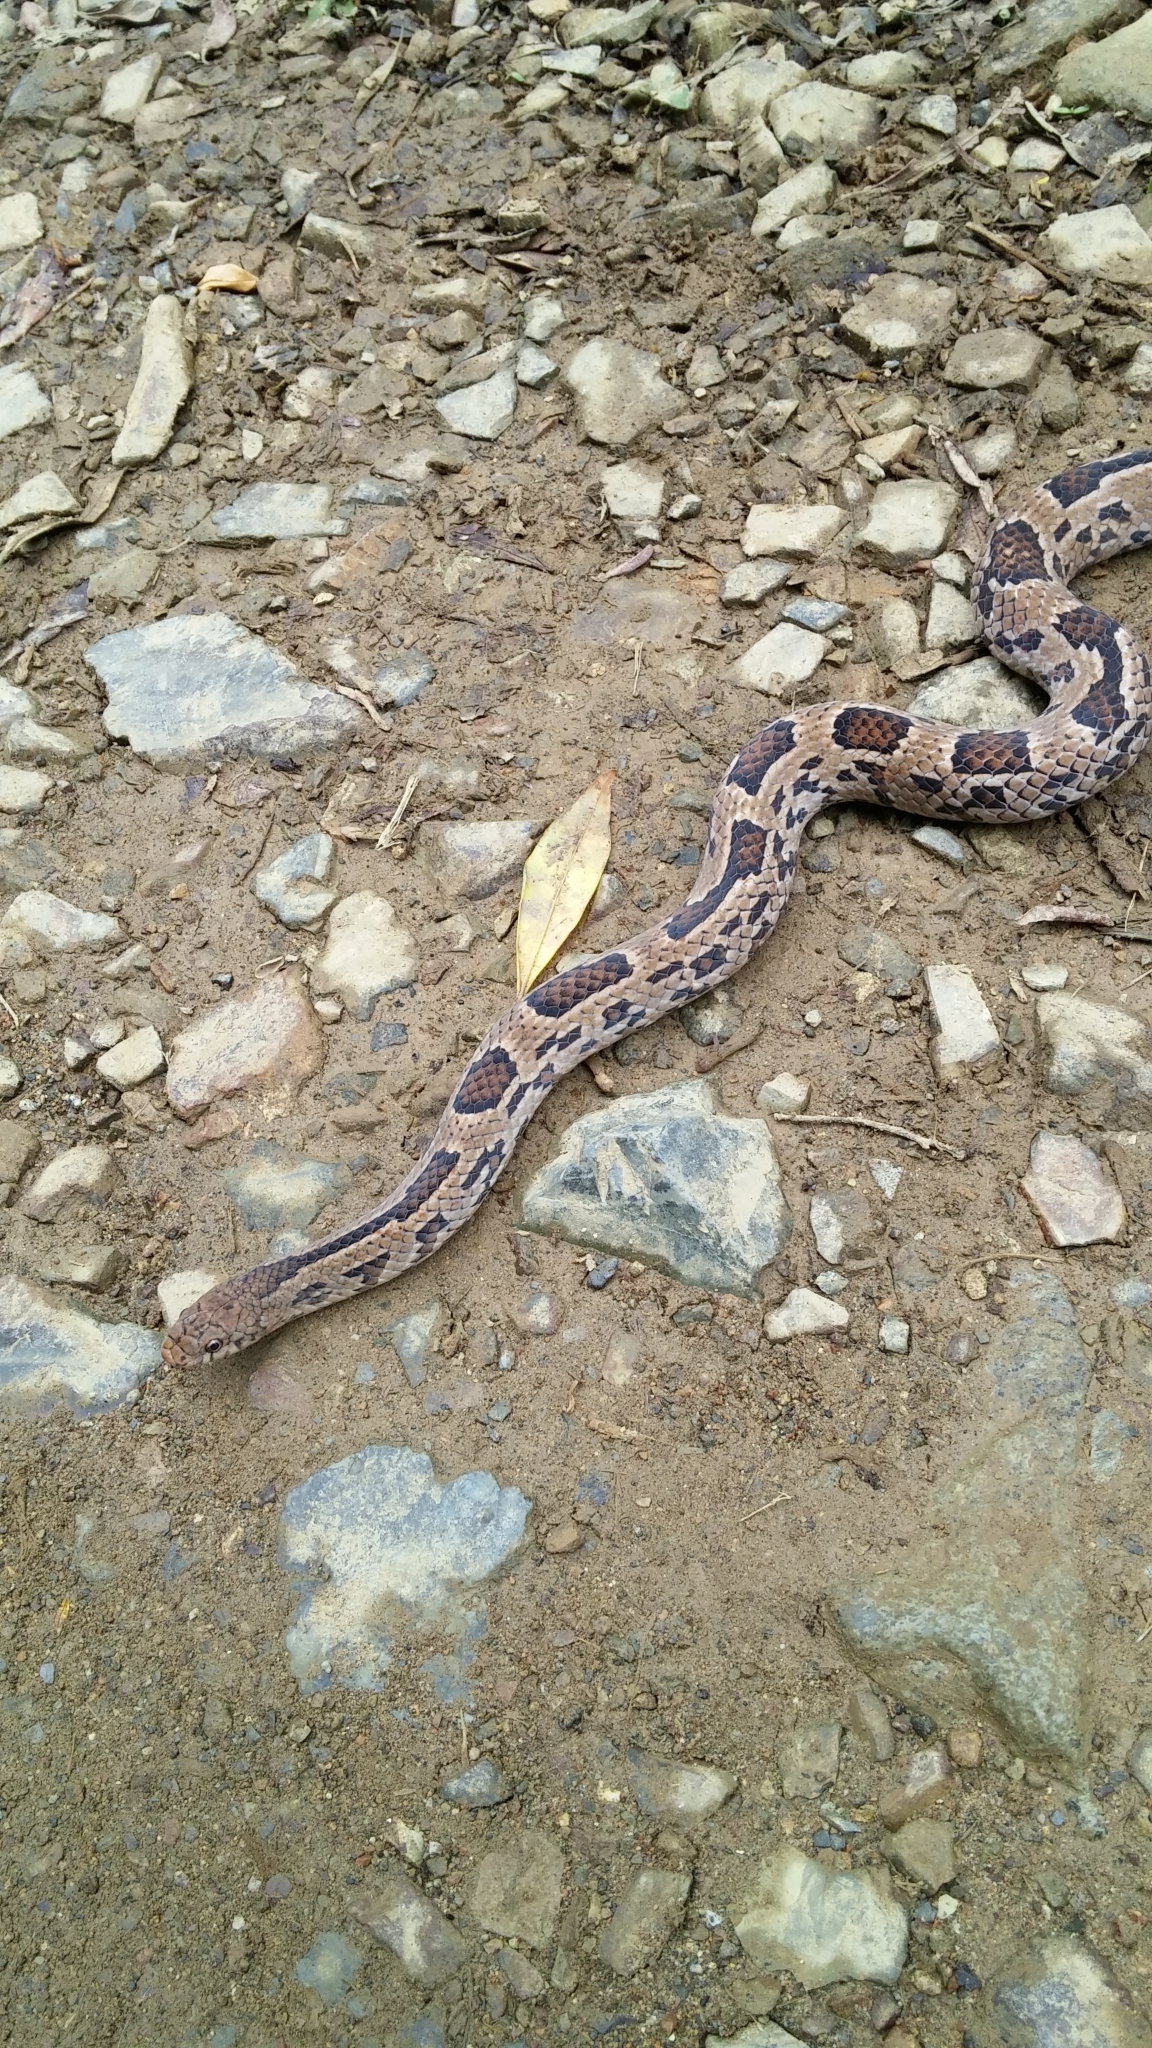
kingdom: Animalia
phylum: Chordata
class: Squamata
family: Colubridae
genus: Stenorrhina
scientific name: Stenorrhina degenhardtii
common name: Degenhardt's scorpion-eating snake
